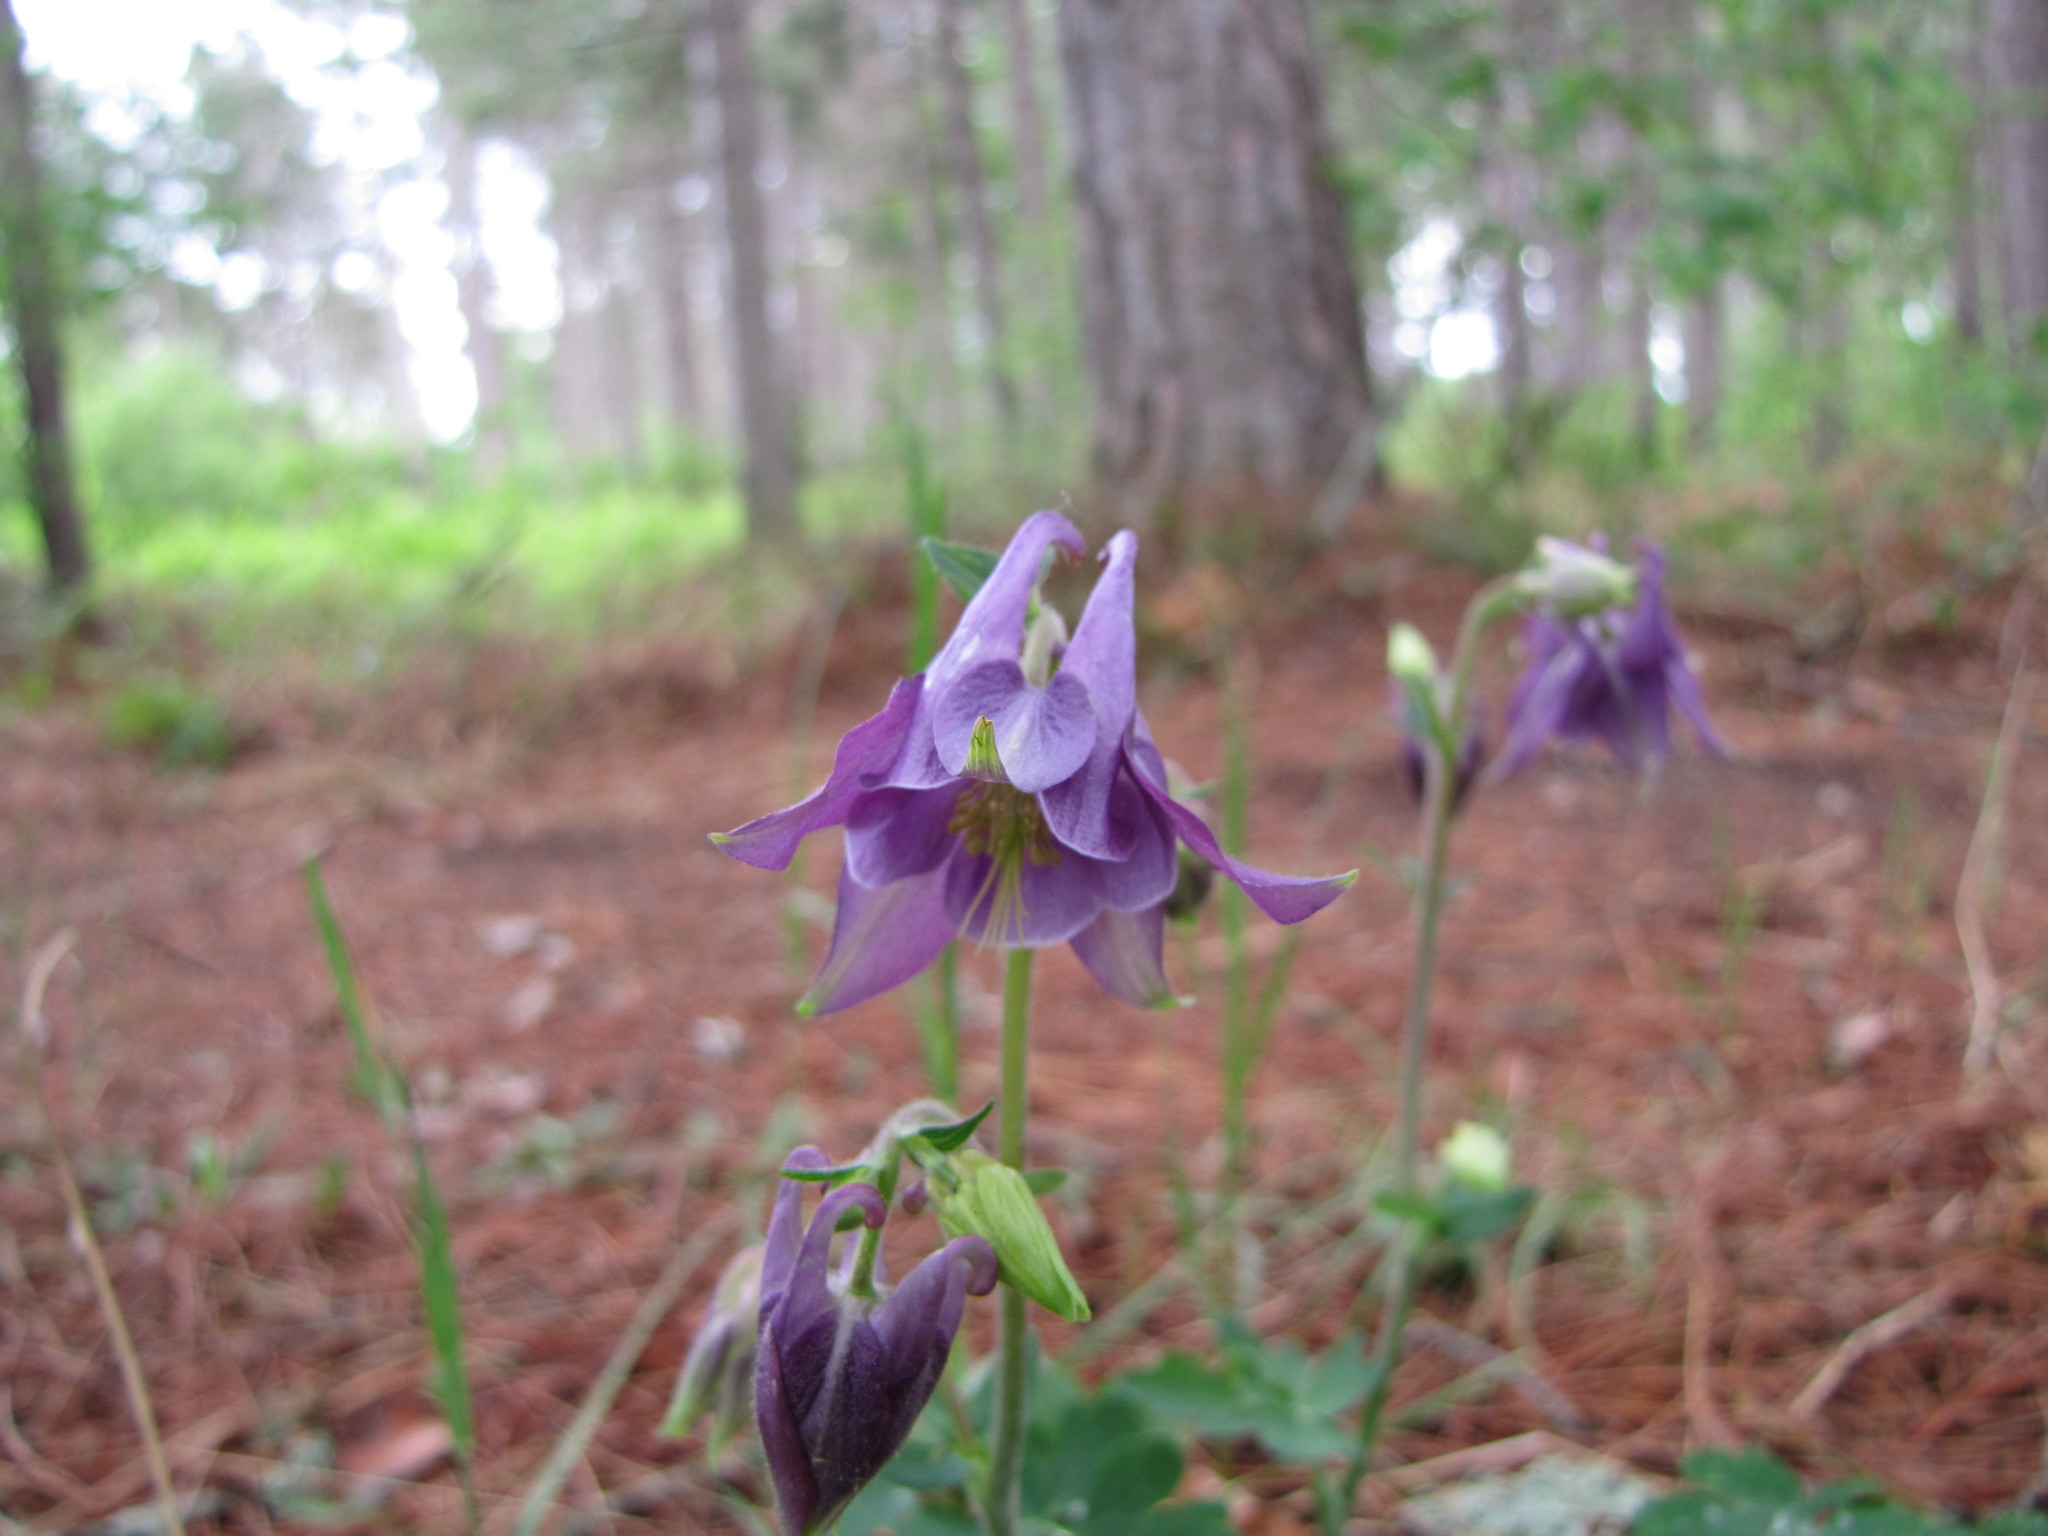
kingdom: Plantae
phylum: Tracheophyta
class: Magnoliopsida
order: Ranunculales
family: Ranunculaceae
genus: Aquilegia
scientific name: Aquilegia vulgaris
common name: Columbine
